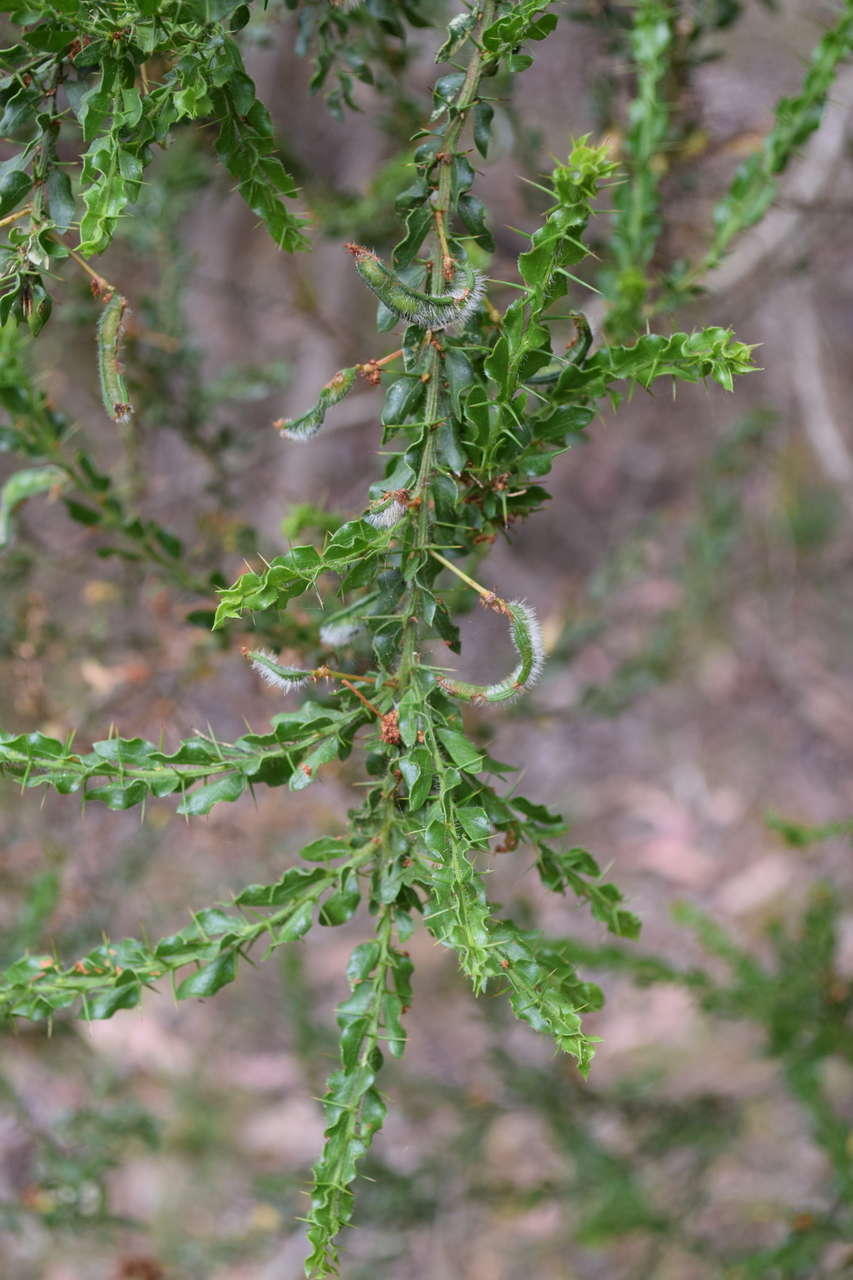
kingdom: Plantae
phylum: Tracheophyta
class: Magnoliopsida
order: Fabales
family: Fabaceae
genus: Acacia
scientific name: Acacia paradoxa
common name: Paradox acacia
